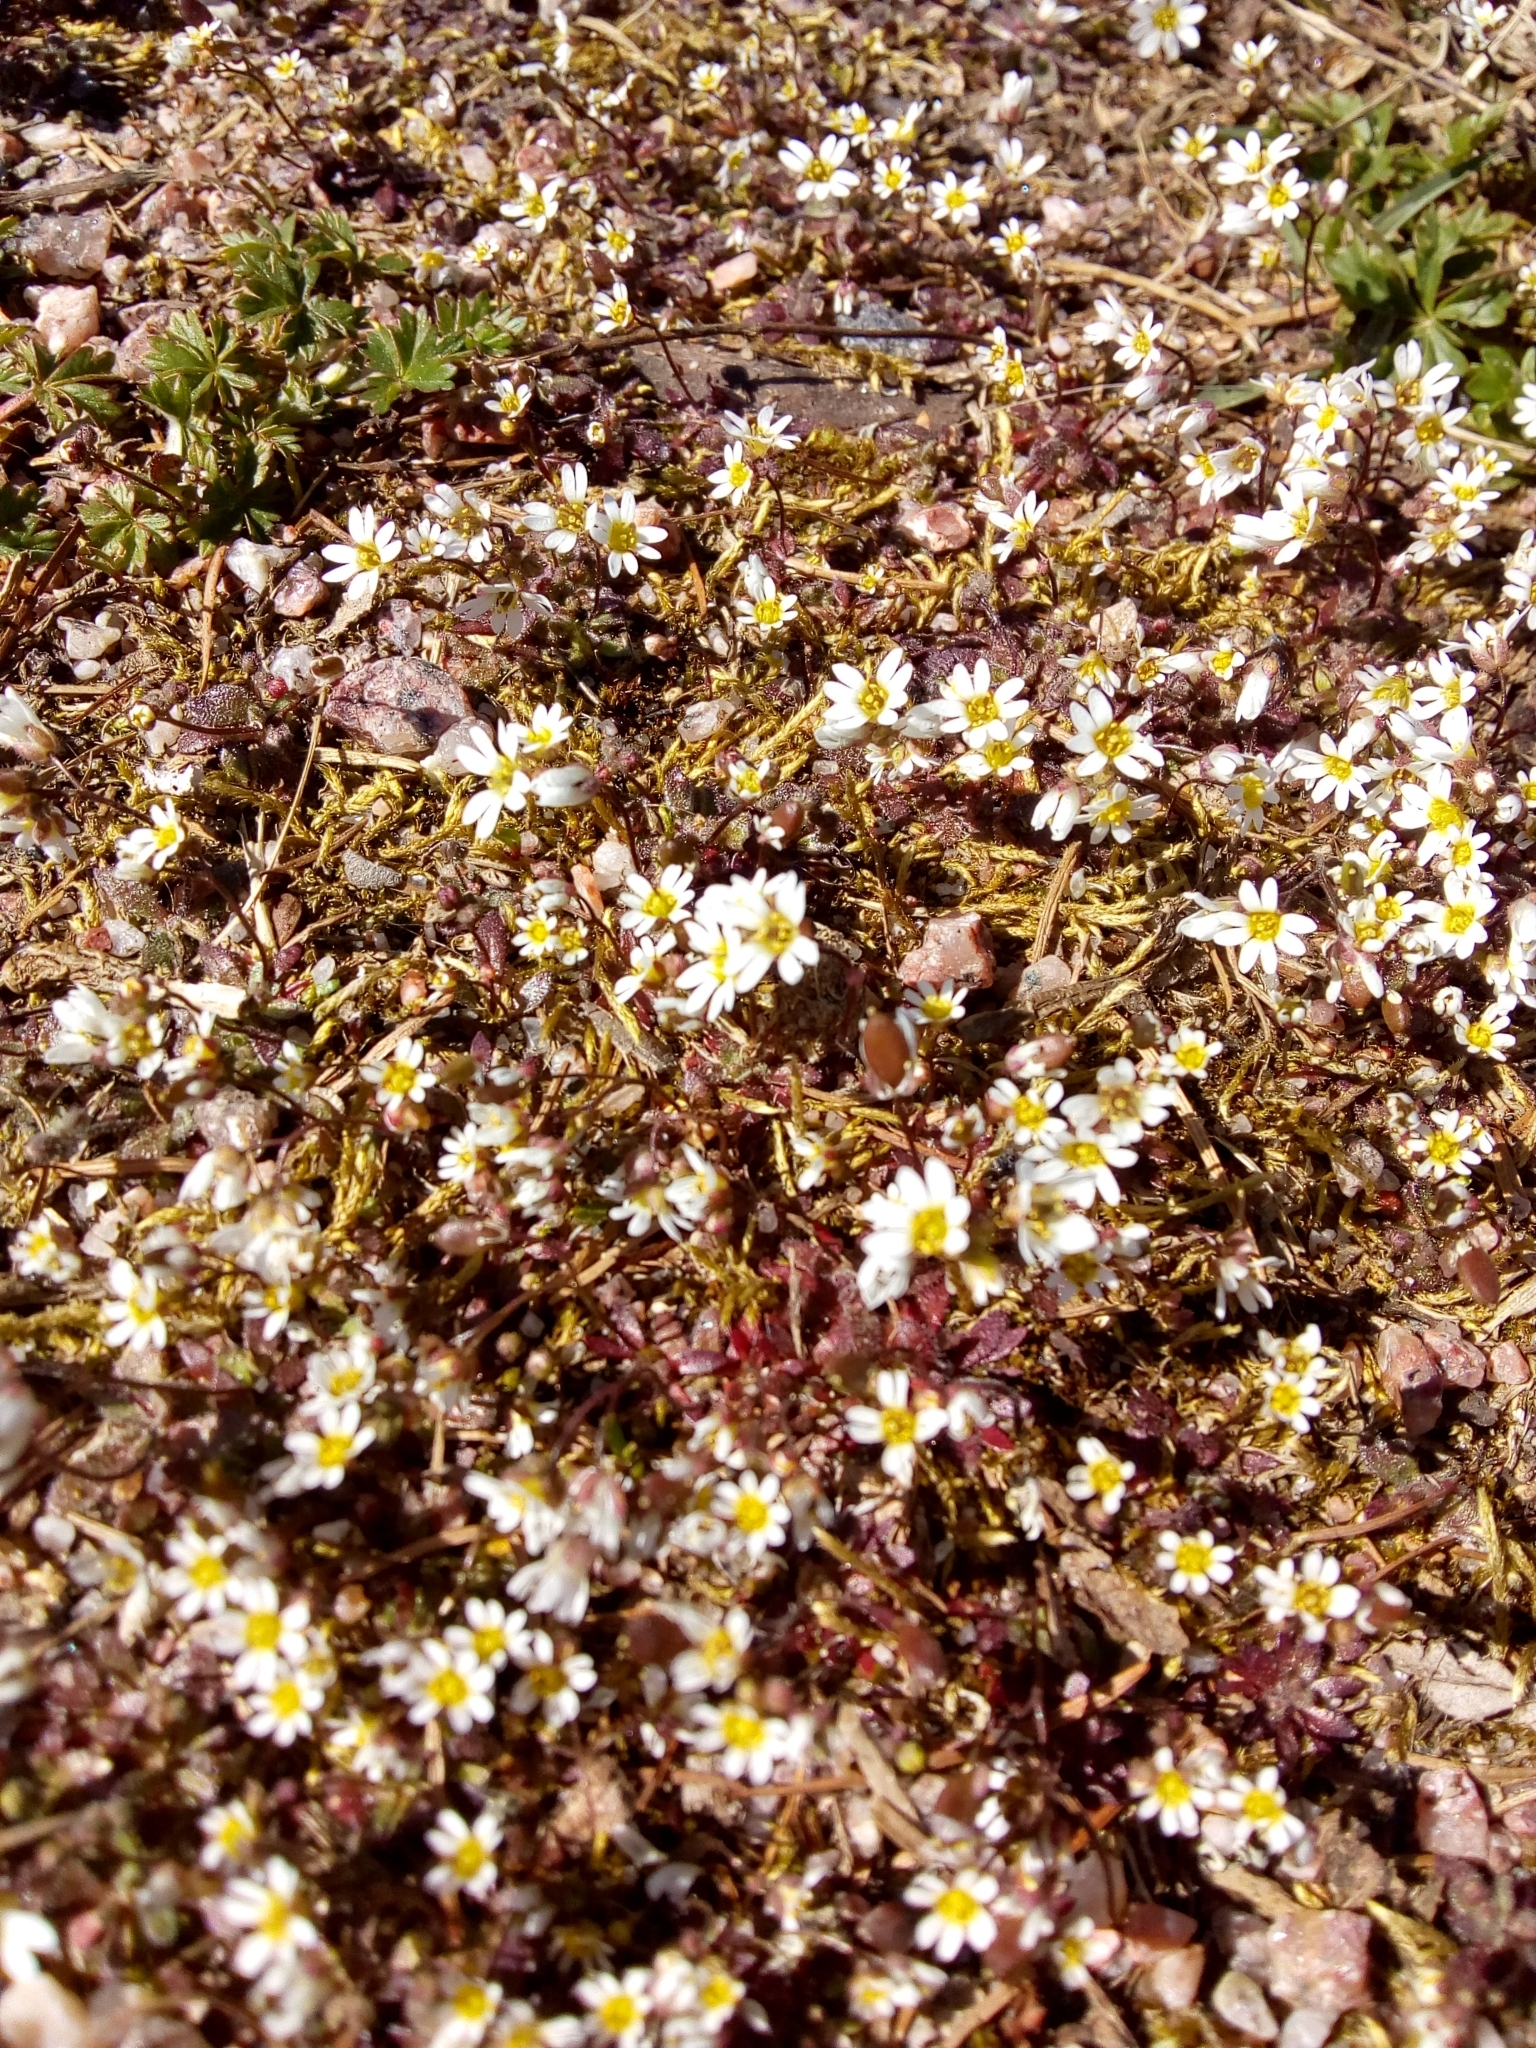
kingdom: Plantae
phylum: Tracheophyta
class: Magnoliopsida
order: Brassicales
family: Brassicaceae
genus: Draba
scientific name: Draba verna
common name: Spring draba
